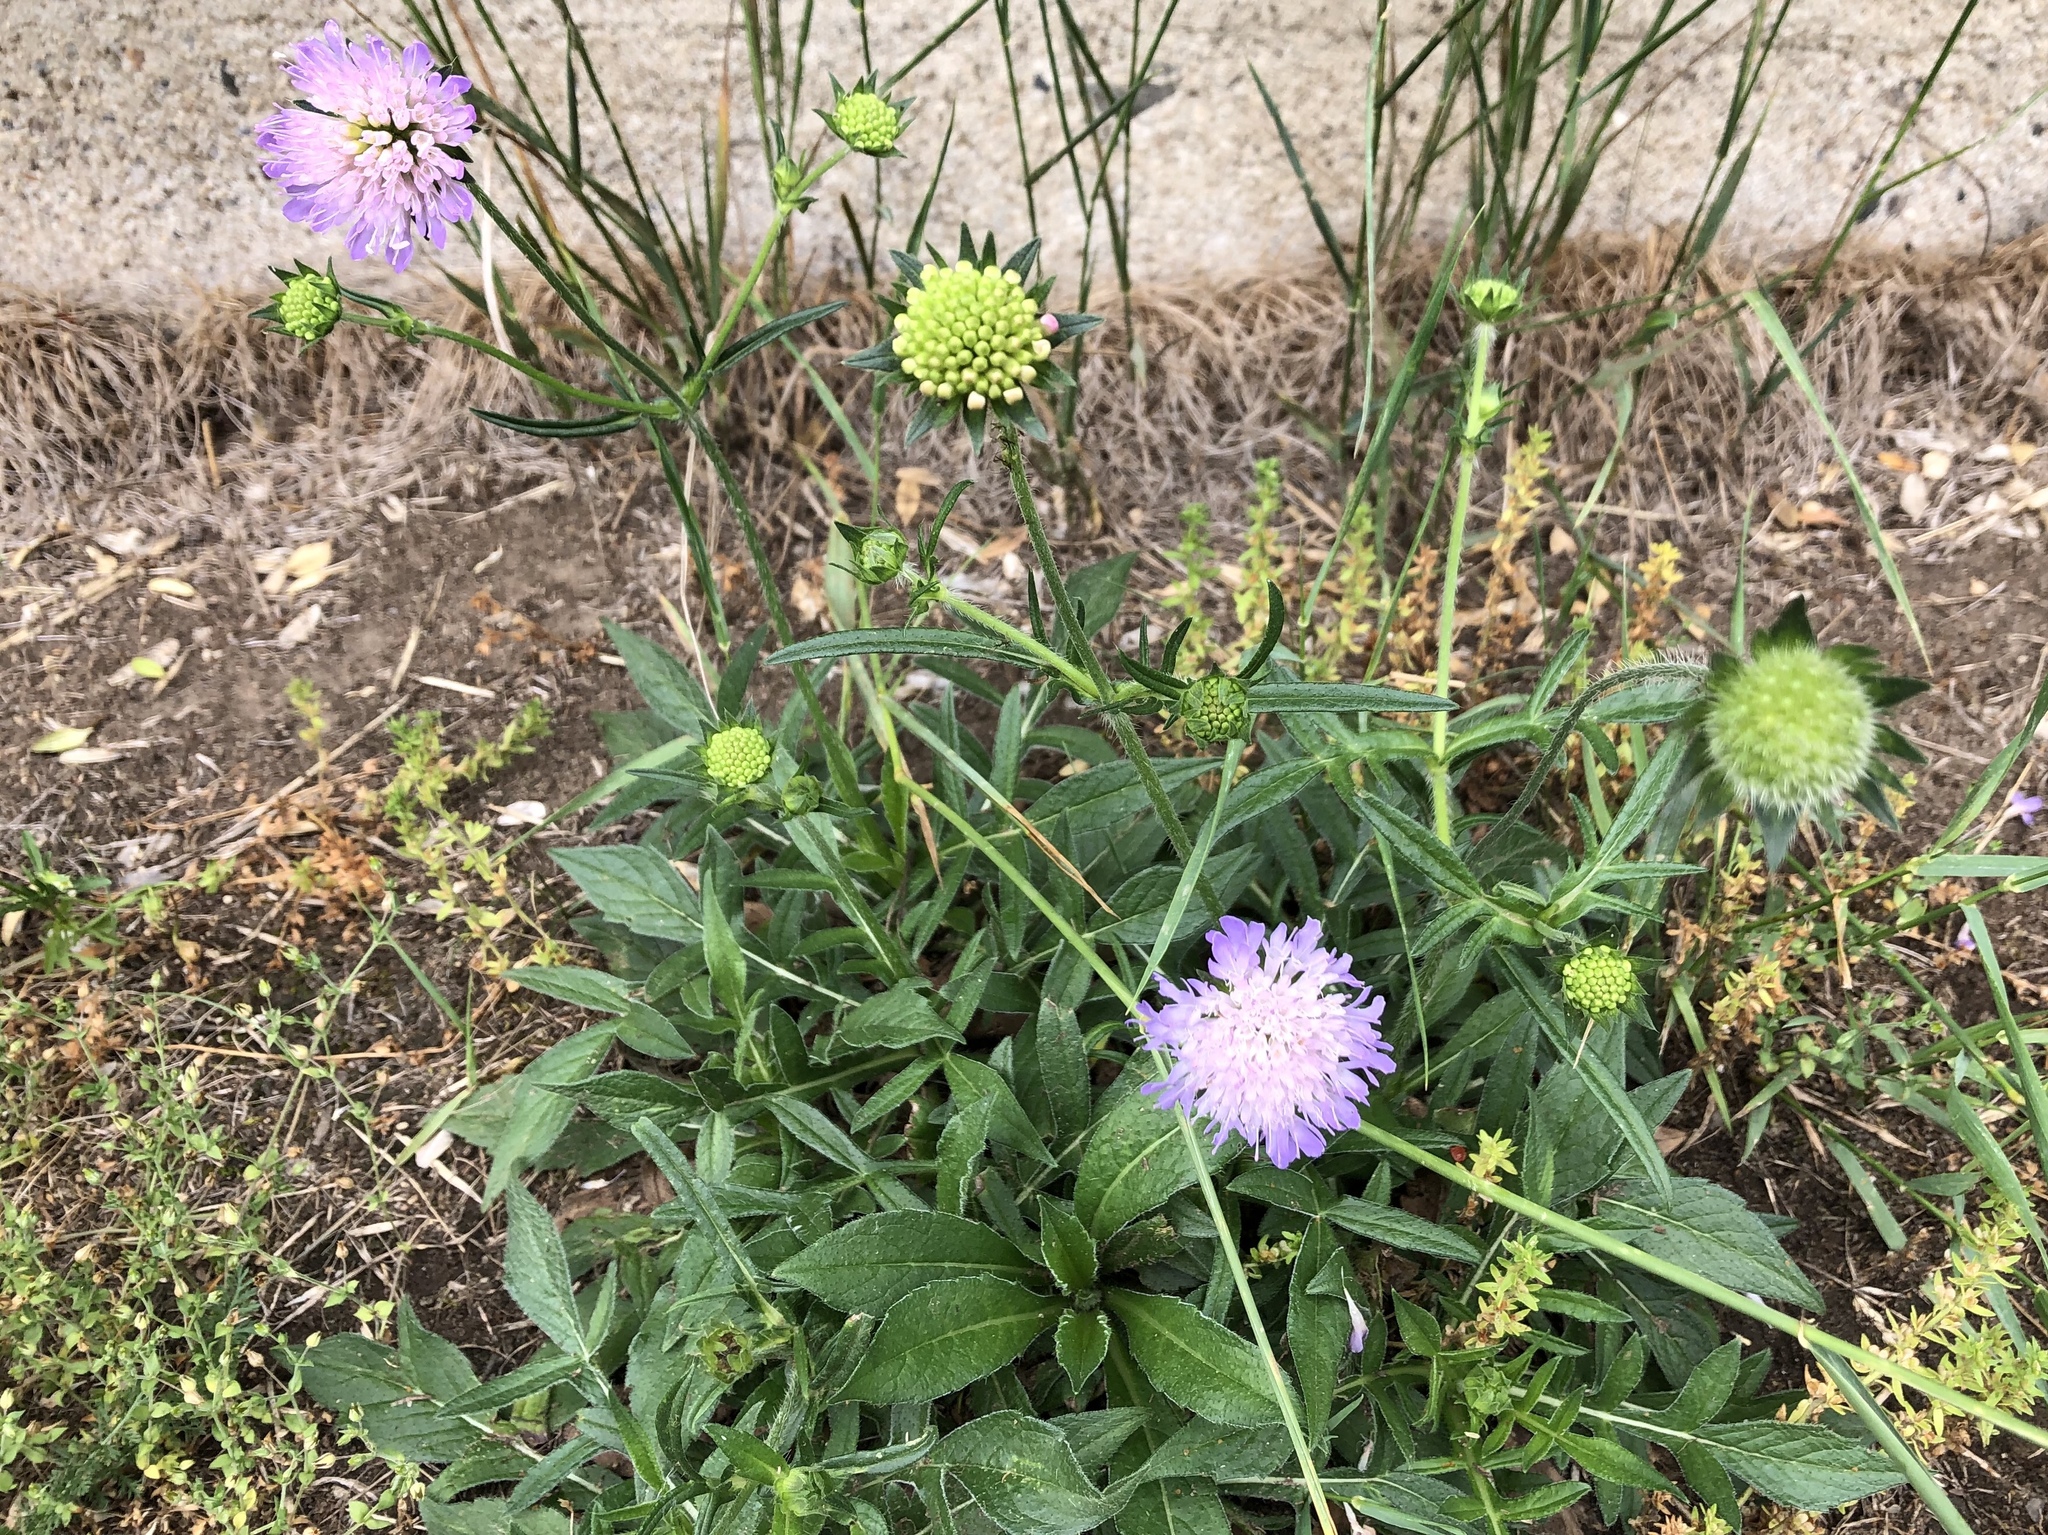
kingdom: Plantae
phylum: Tracheophyta
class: Magnoliopsida
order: Dipsacales
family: Caprifoliaceae
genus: Knautia
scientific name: Knautia arvensis
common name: Field scabiosa
